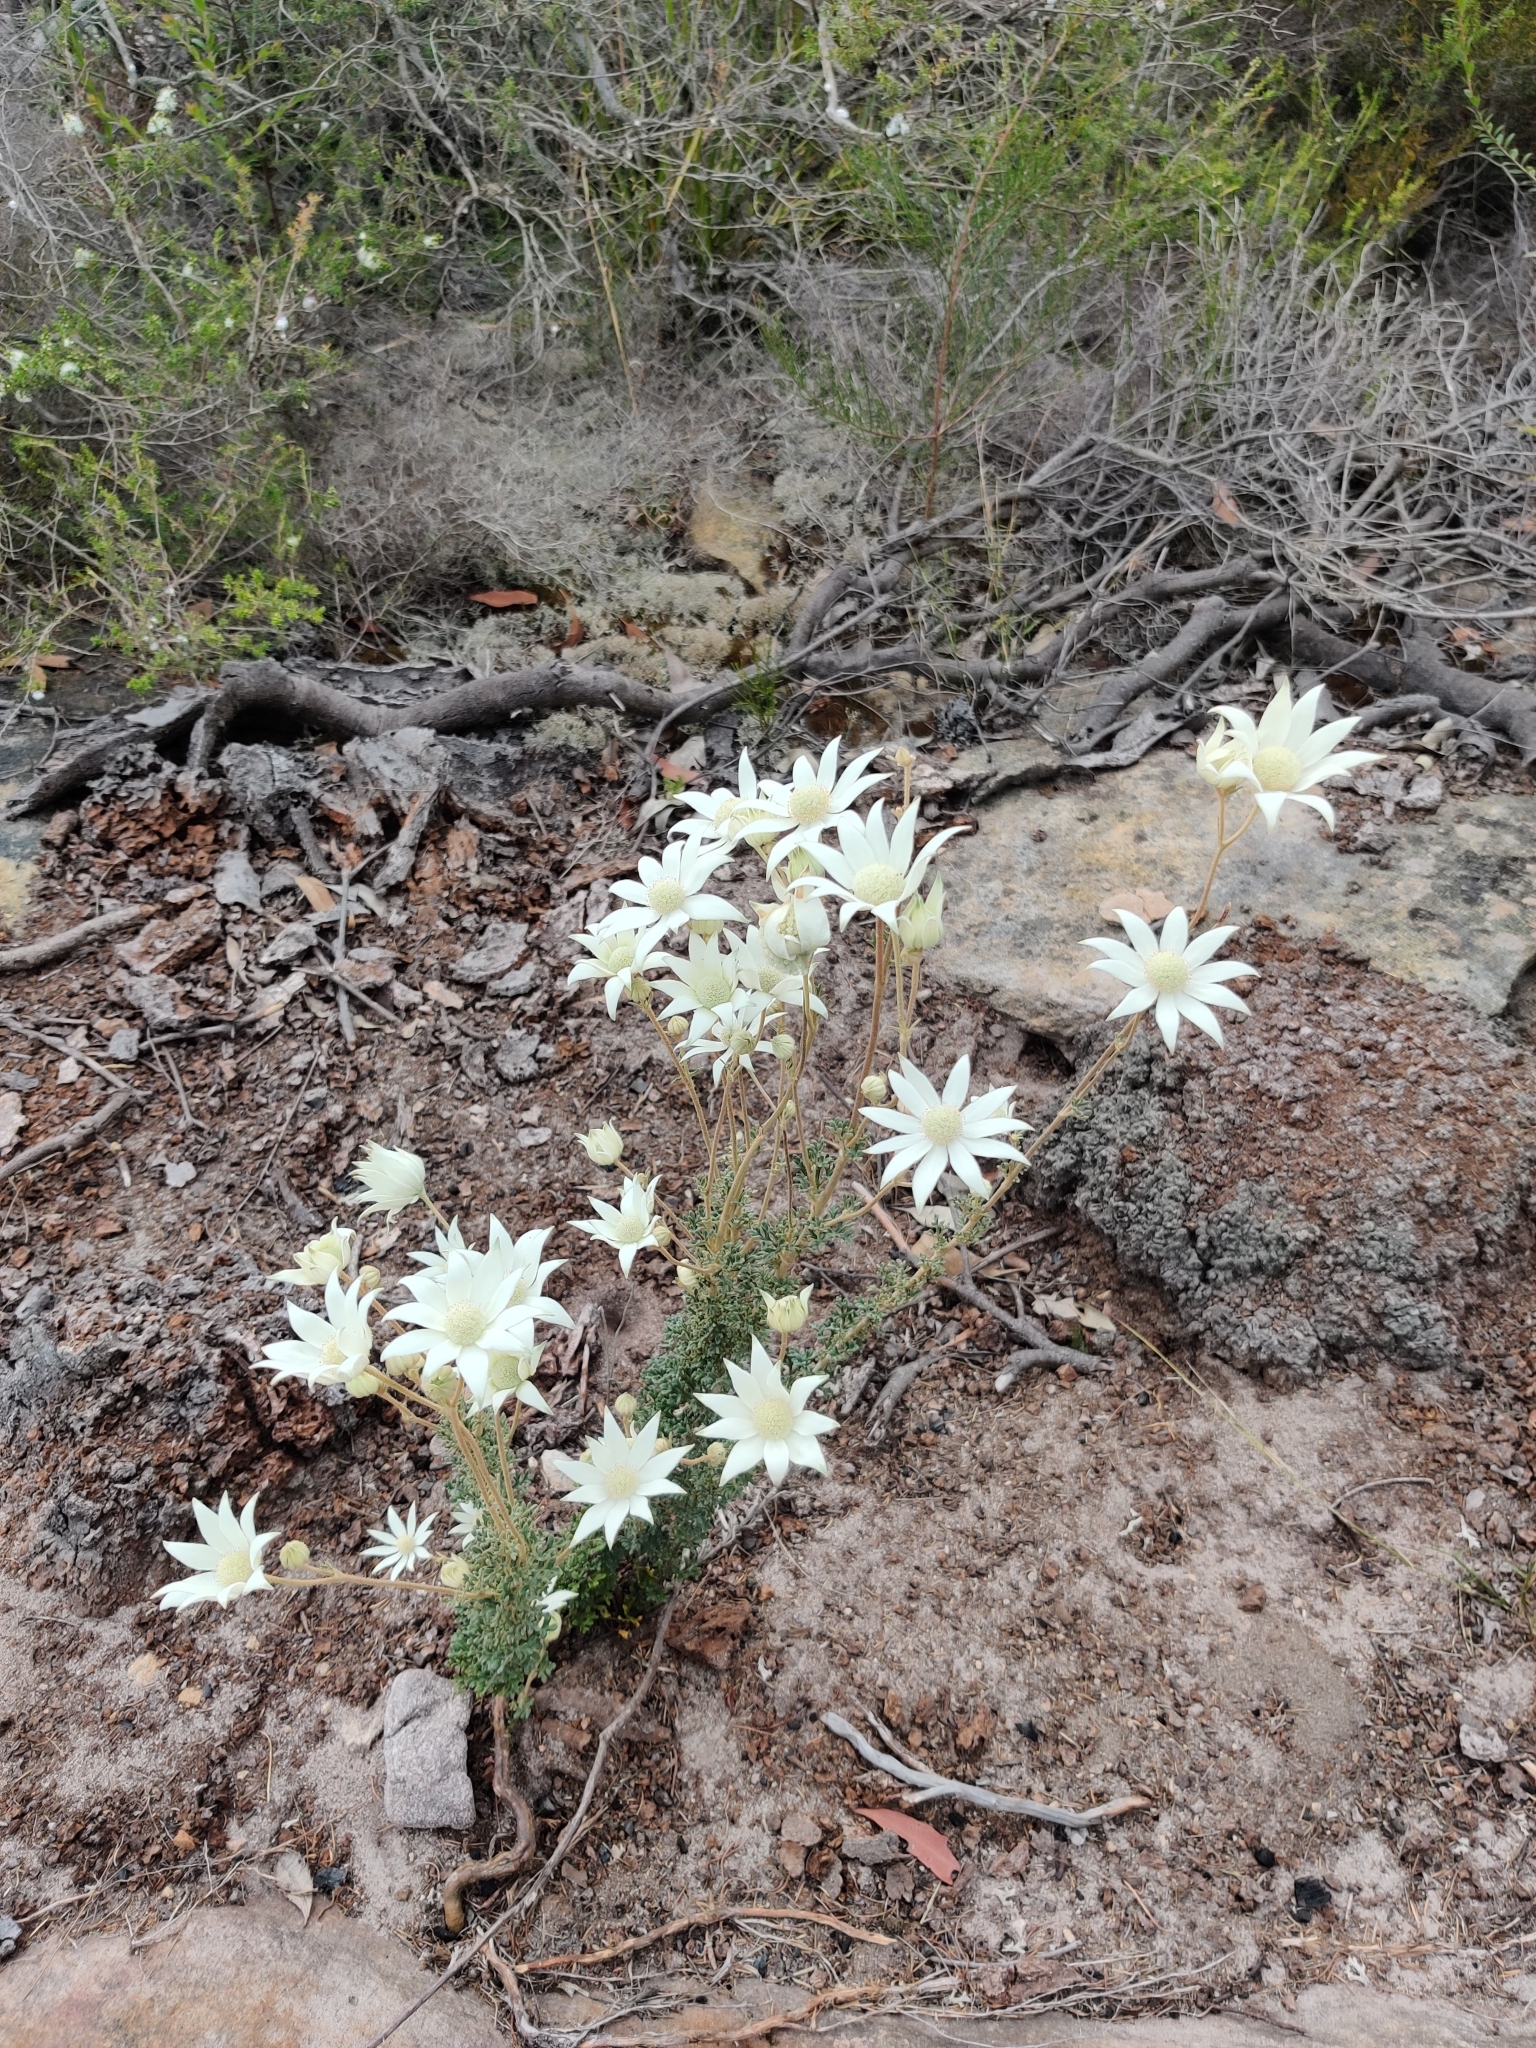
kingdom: Plantae
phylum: Tracheophyta
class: Magnoliopsida
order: Apiales
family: Apiaceae
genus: Actinotus
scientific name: Actinotus helianthi
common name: Flannel-flower
